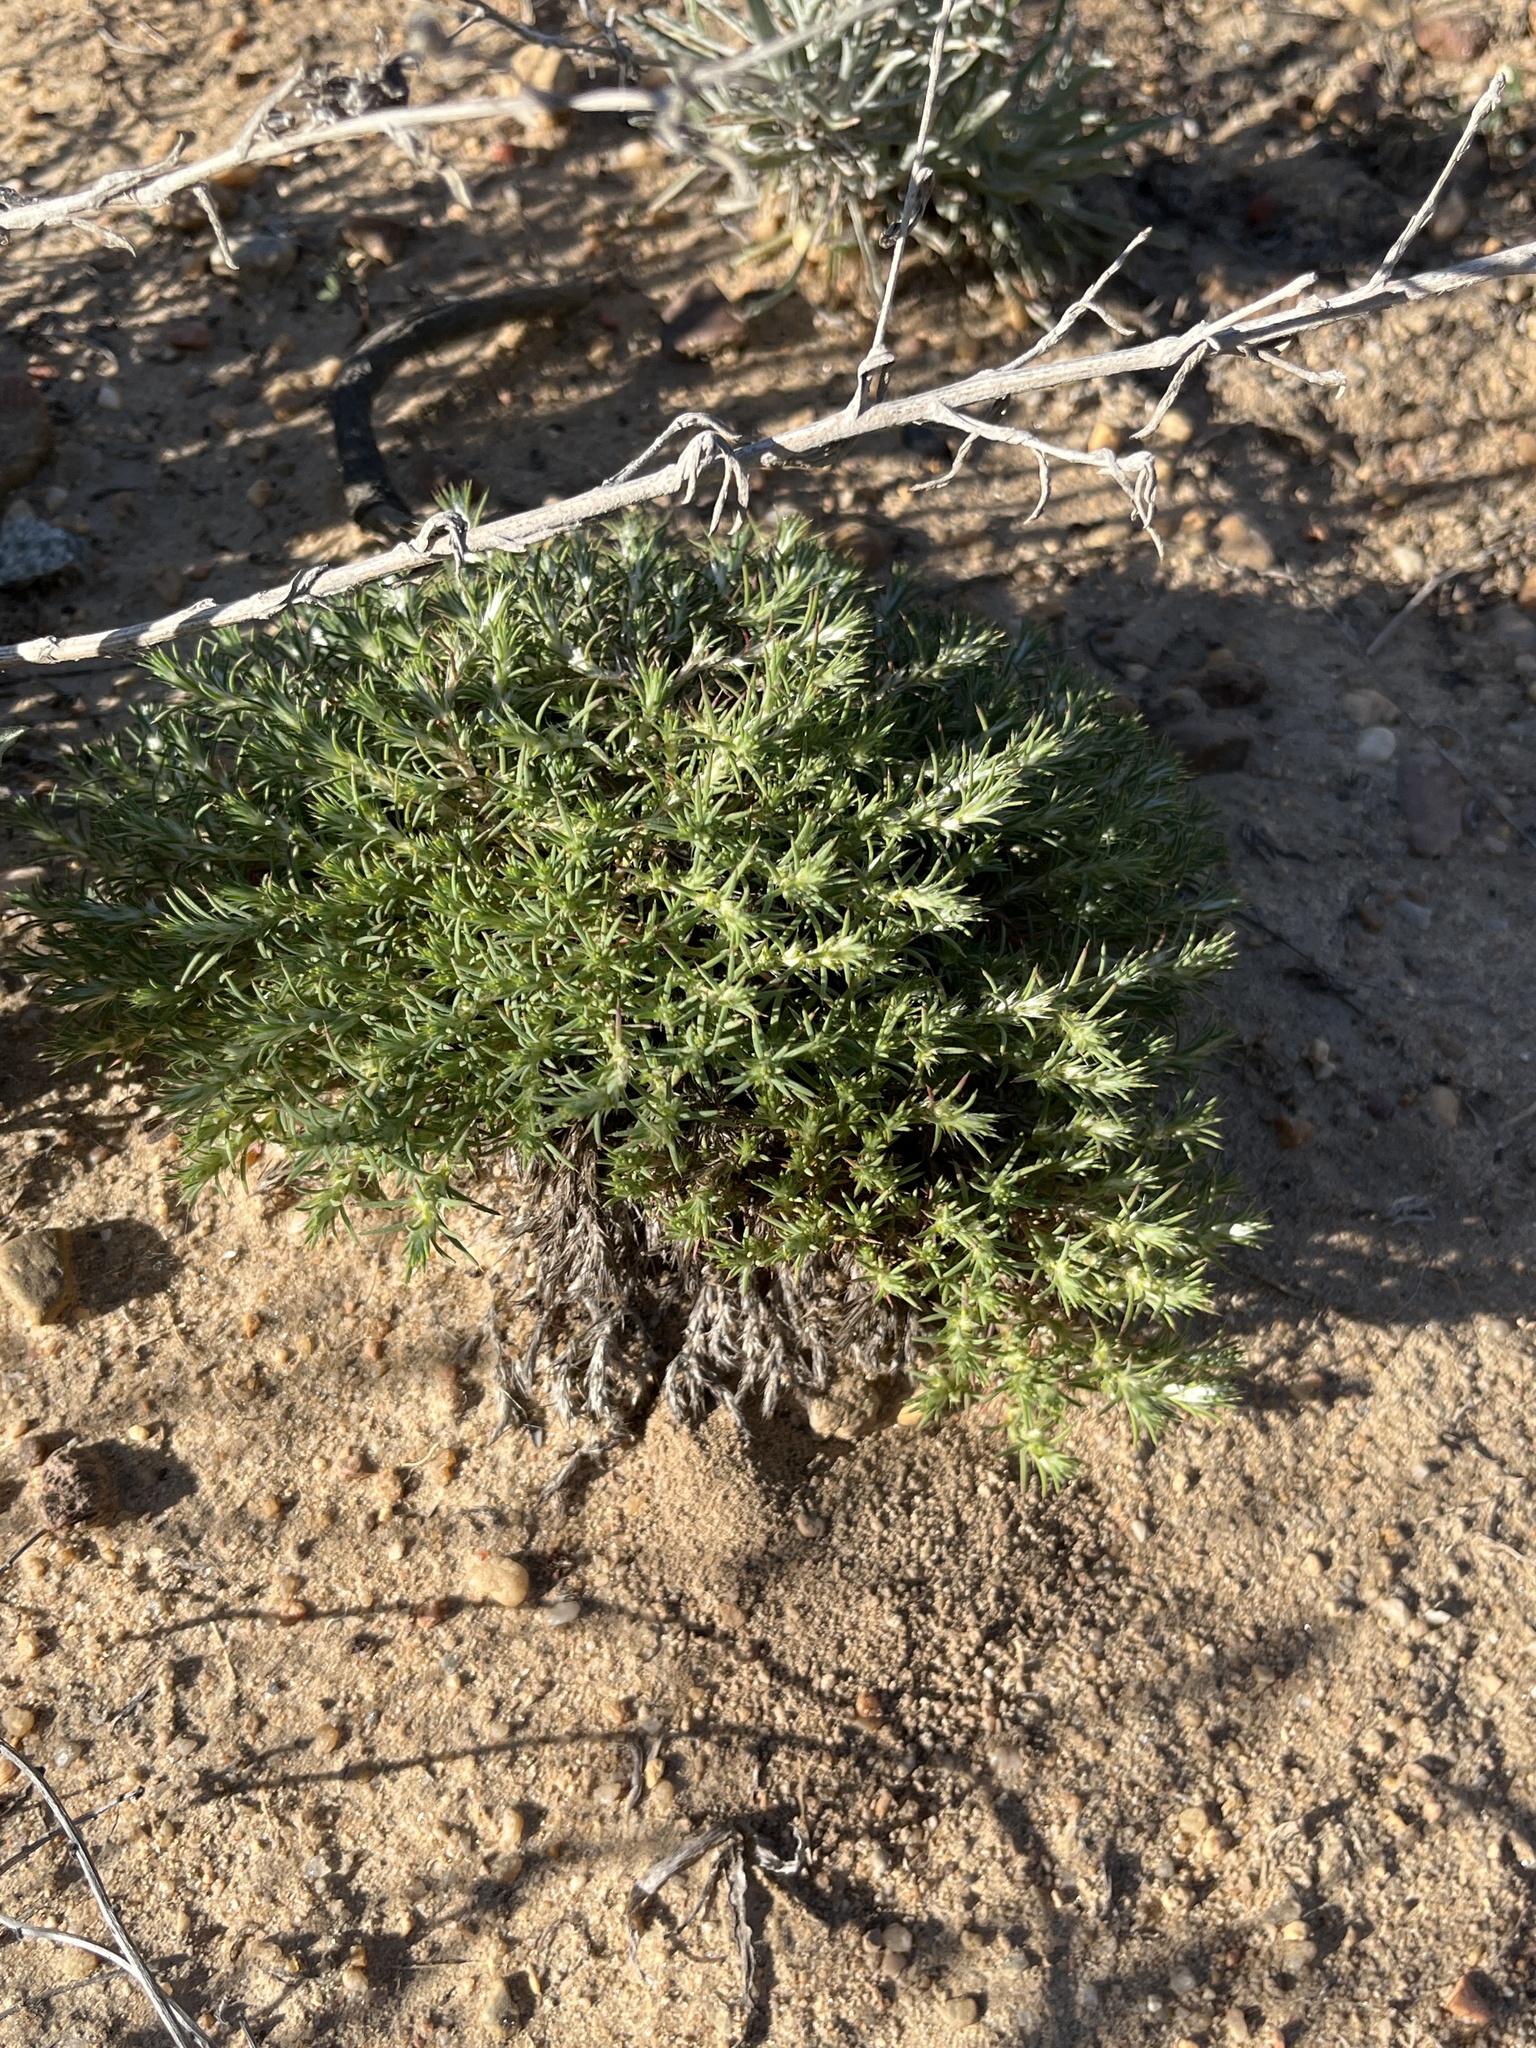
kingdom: Plantae
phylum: Tracheophyta
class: Magnoliopsida
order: Caryophyllales
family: Caryophyllaceae
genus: Cardionema
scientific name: Cardionema ramosissima
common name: Sandcarpet
